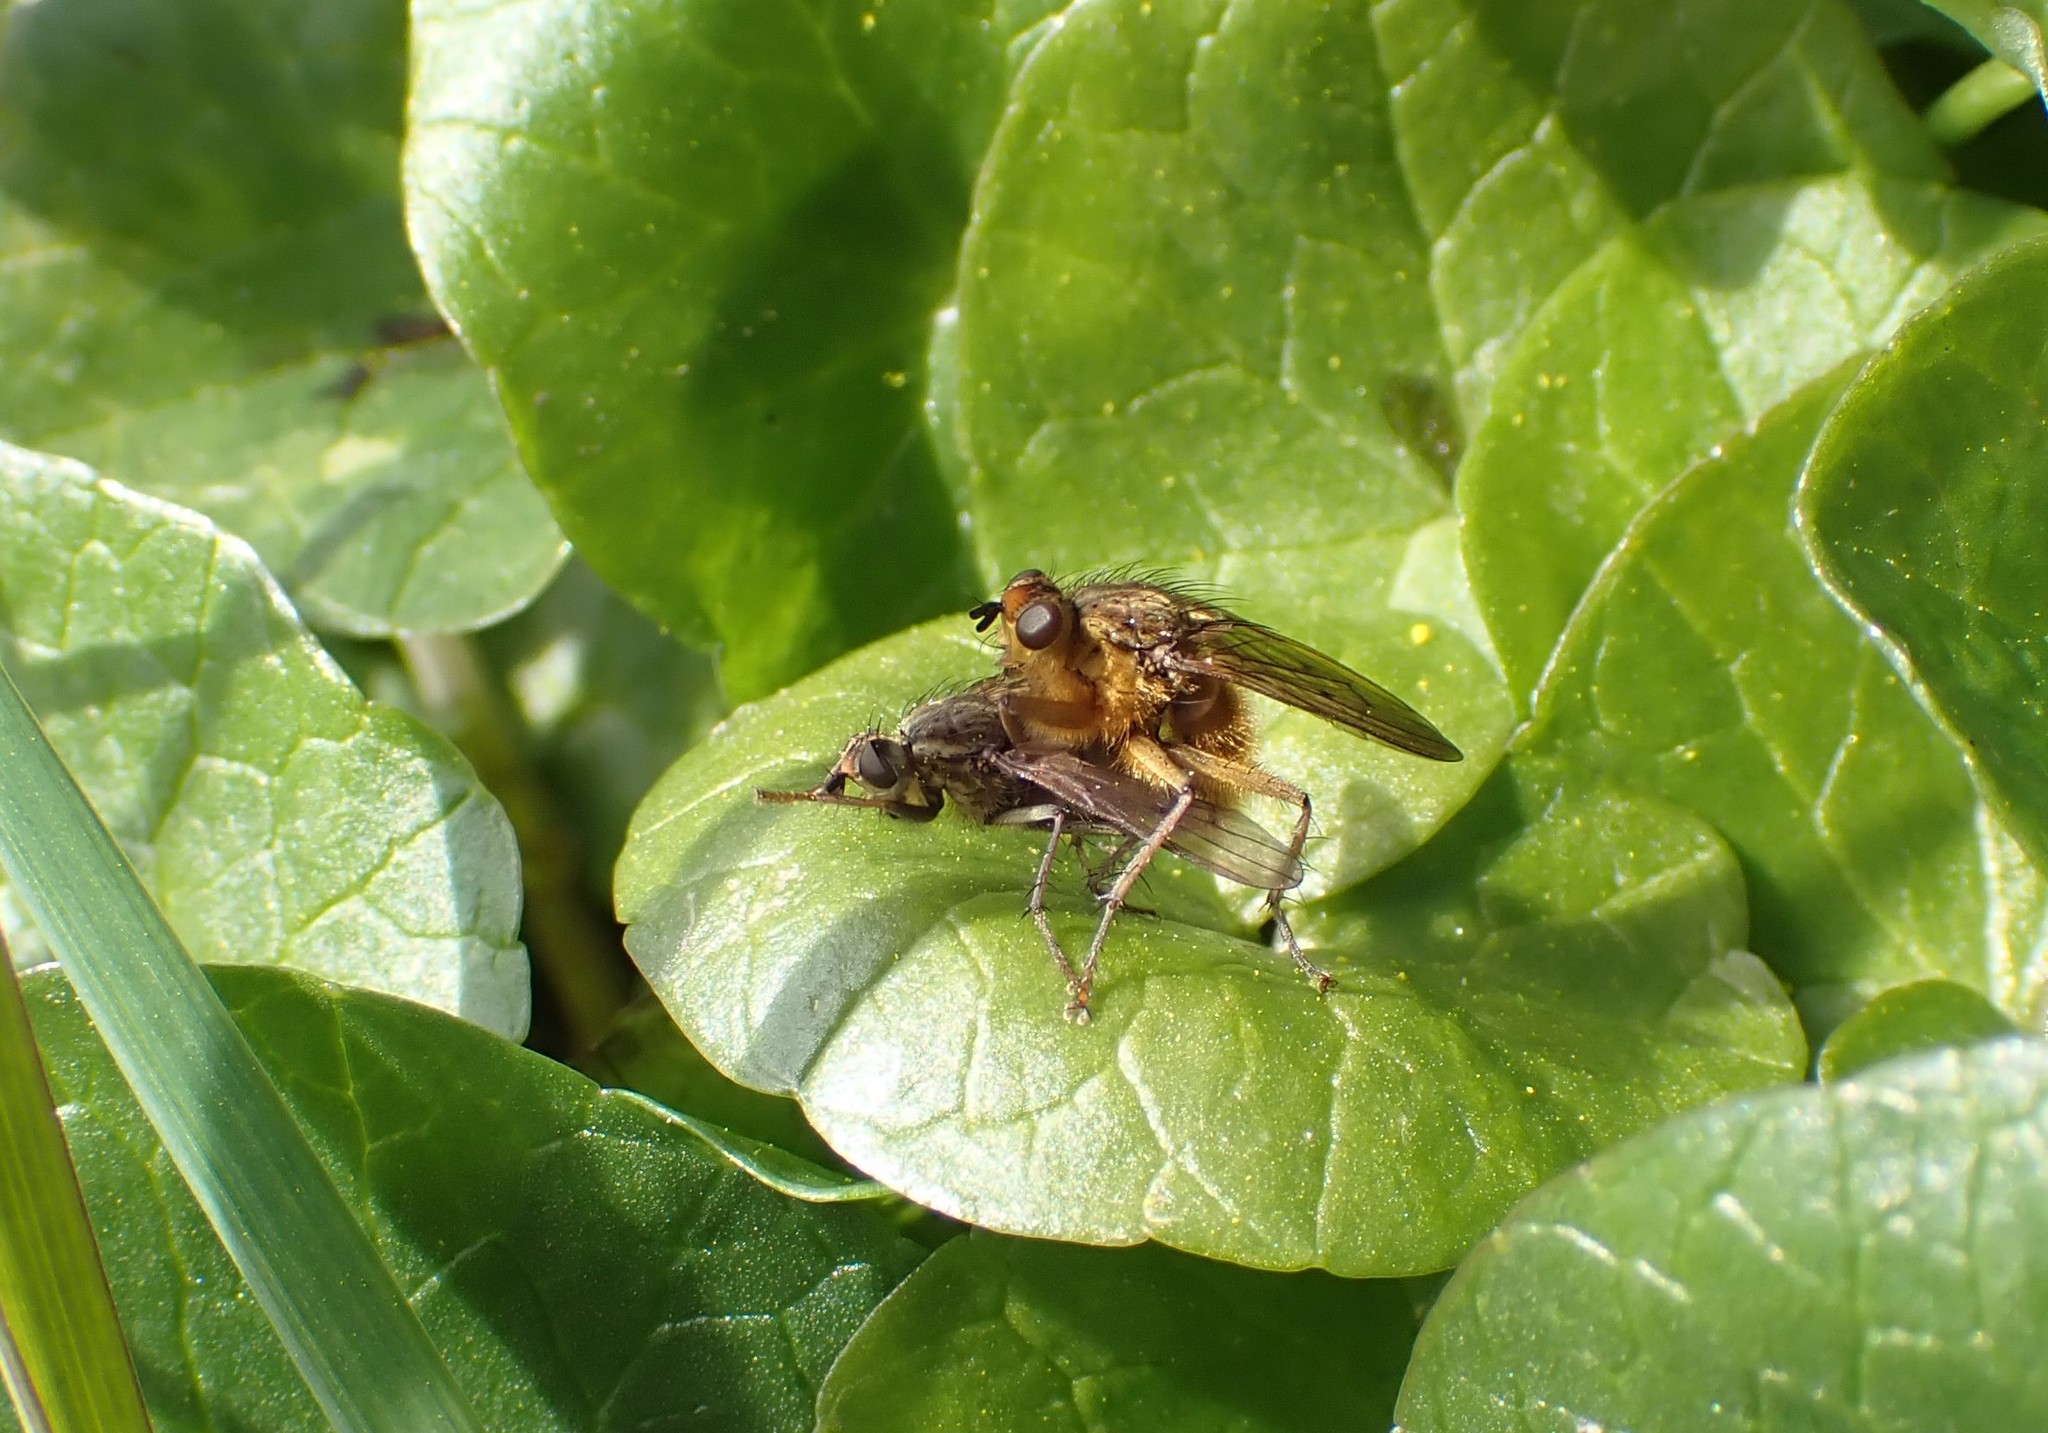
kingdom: Animalia
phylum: Arthropoda
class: Insecta
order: Diptera
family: Scathophagidae
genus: Scathophaga
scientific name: Scathophaga stercoraria
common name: Yellow dung fly
